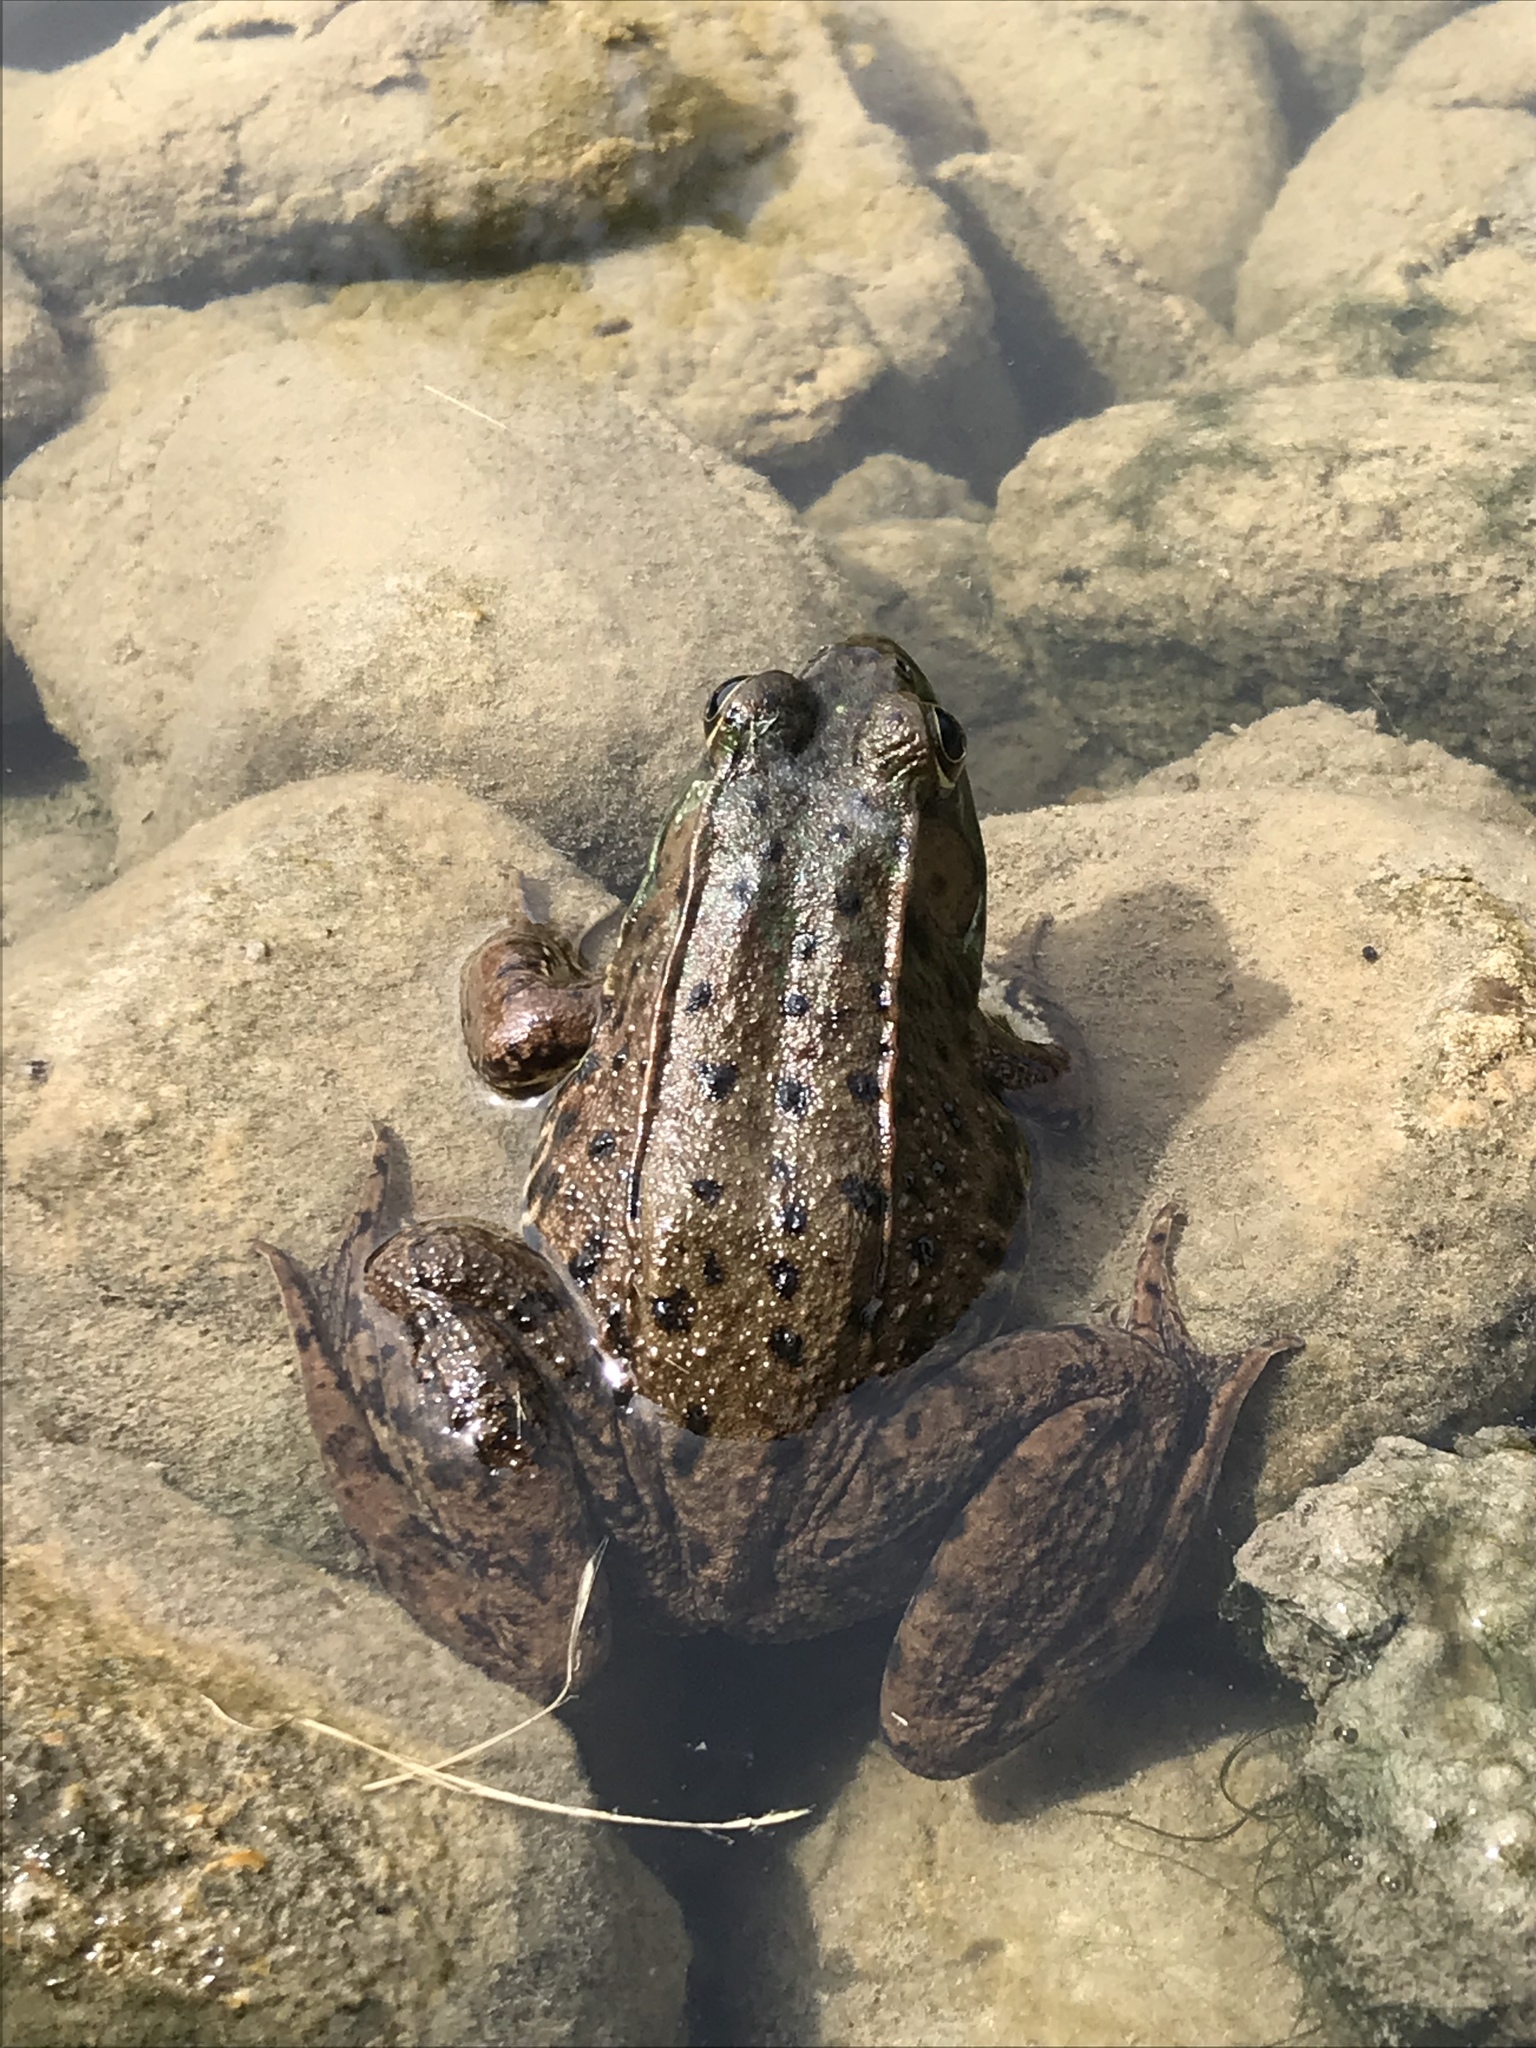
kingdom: Animalia
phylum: Chordata
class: Amphibia
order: Anura
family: Ranidae
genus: Lithobates
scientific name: Lithobates clamitans
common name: Green frog
